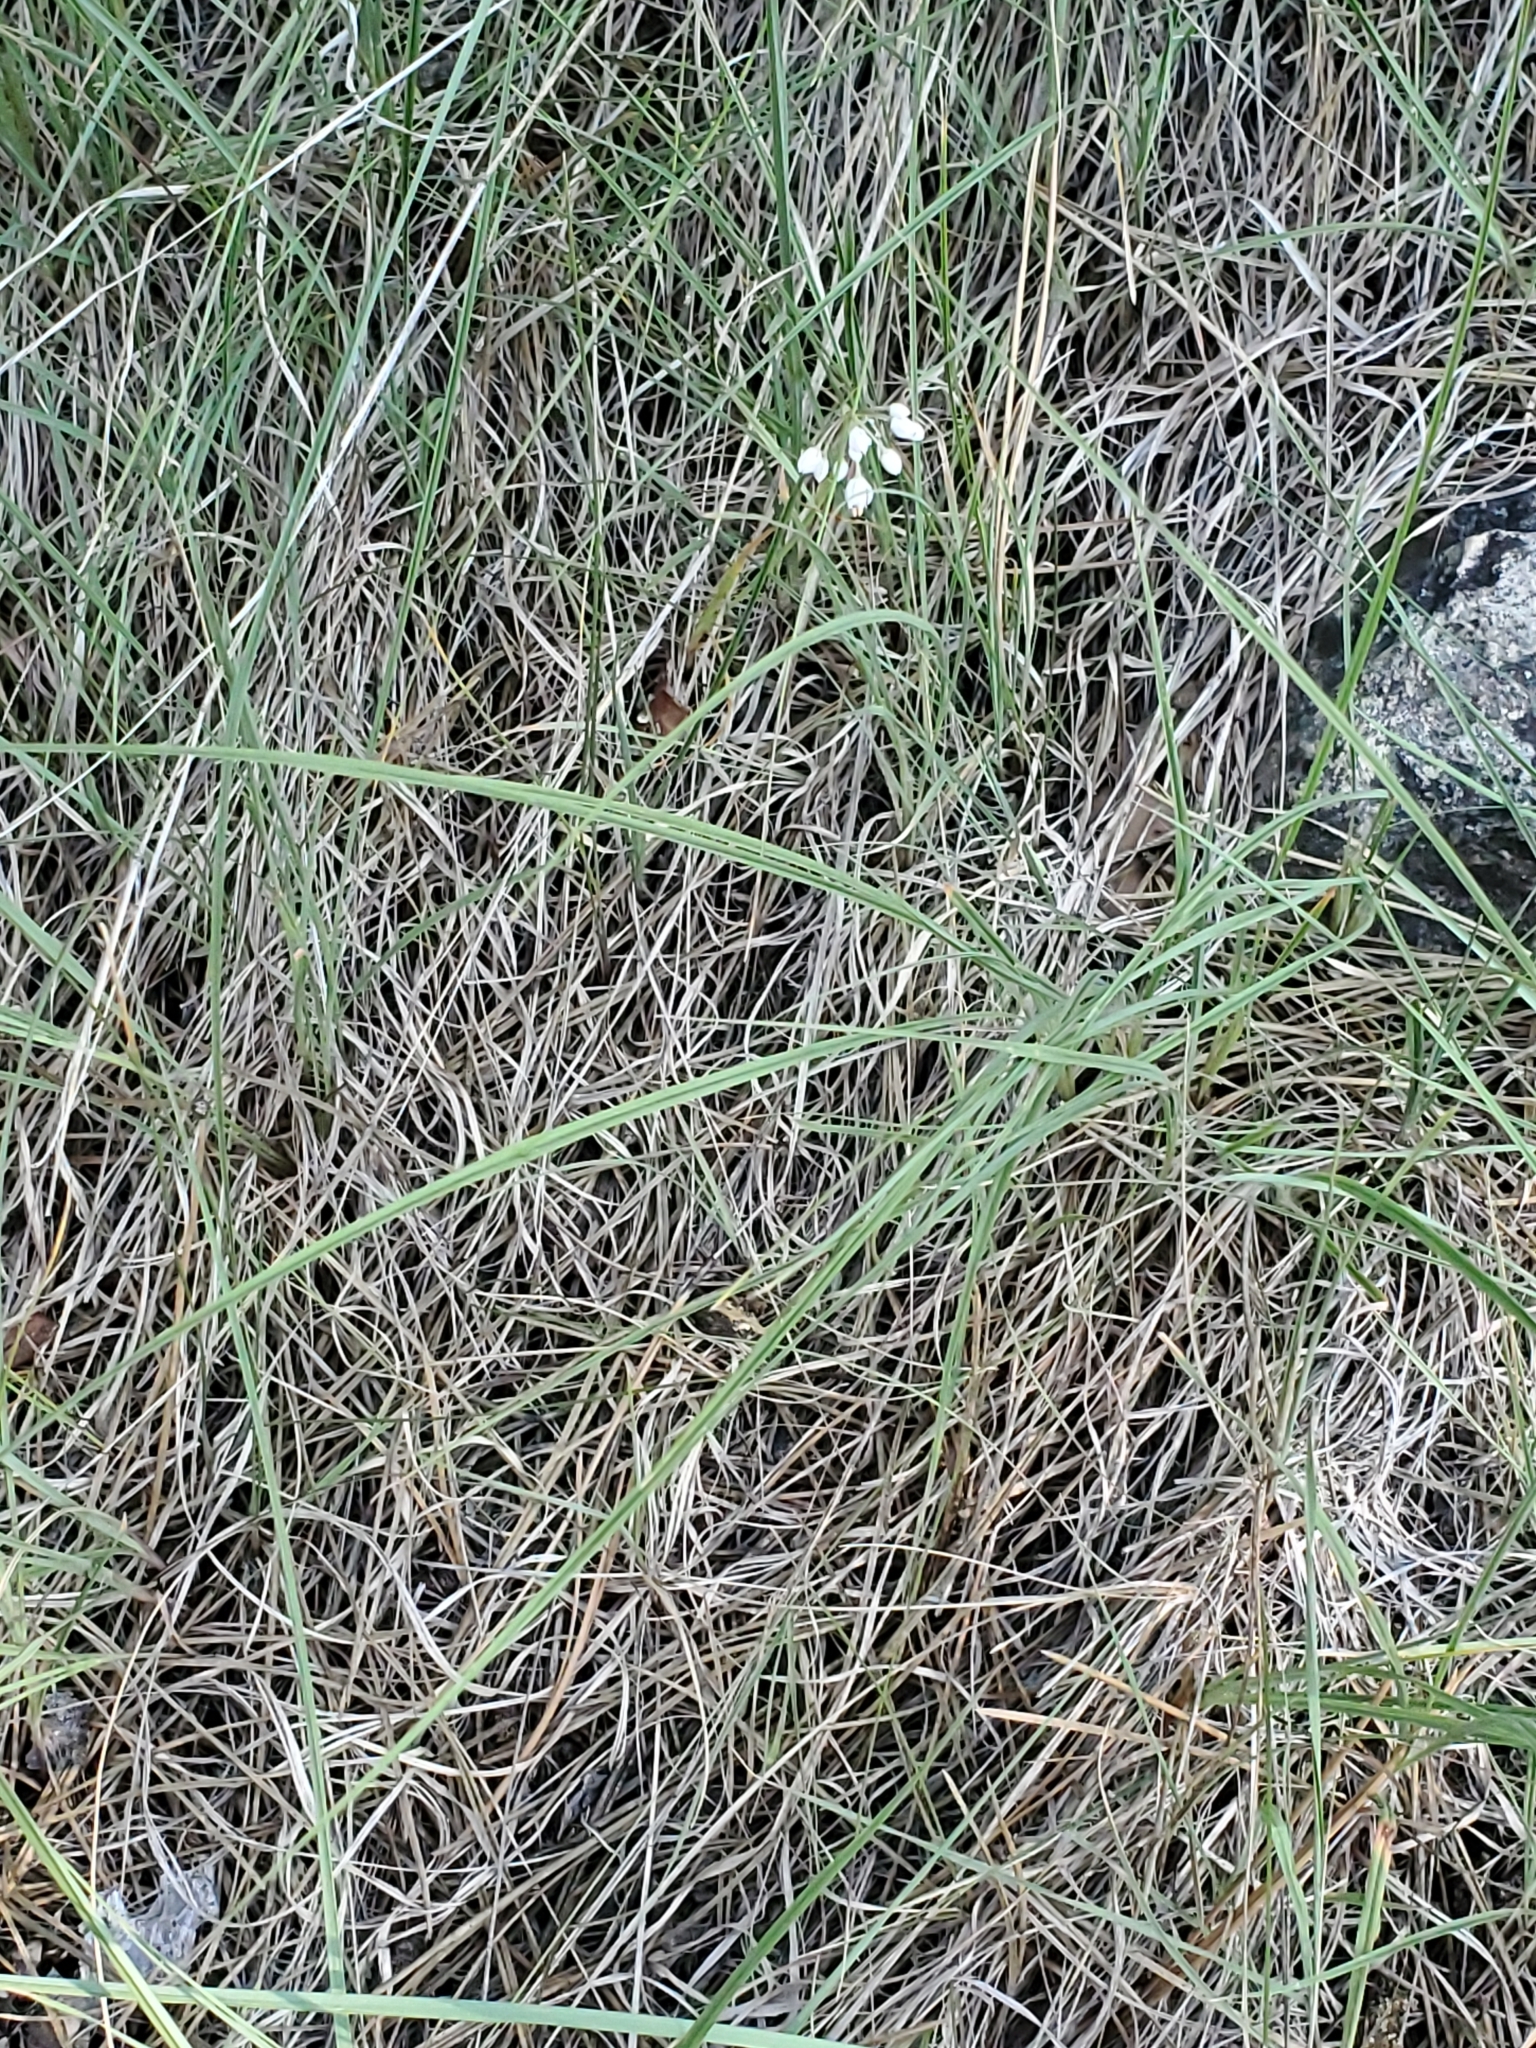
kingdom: Plantae
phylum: Tracheophyta
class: Liliopsida
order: Asparagales
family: Amaryllidaceae
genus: Allium
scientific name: Allium cernuum
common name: Nodding onion
